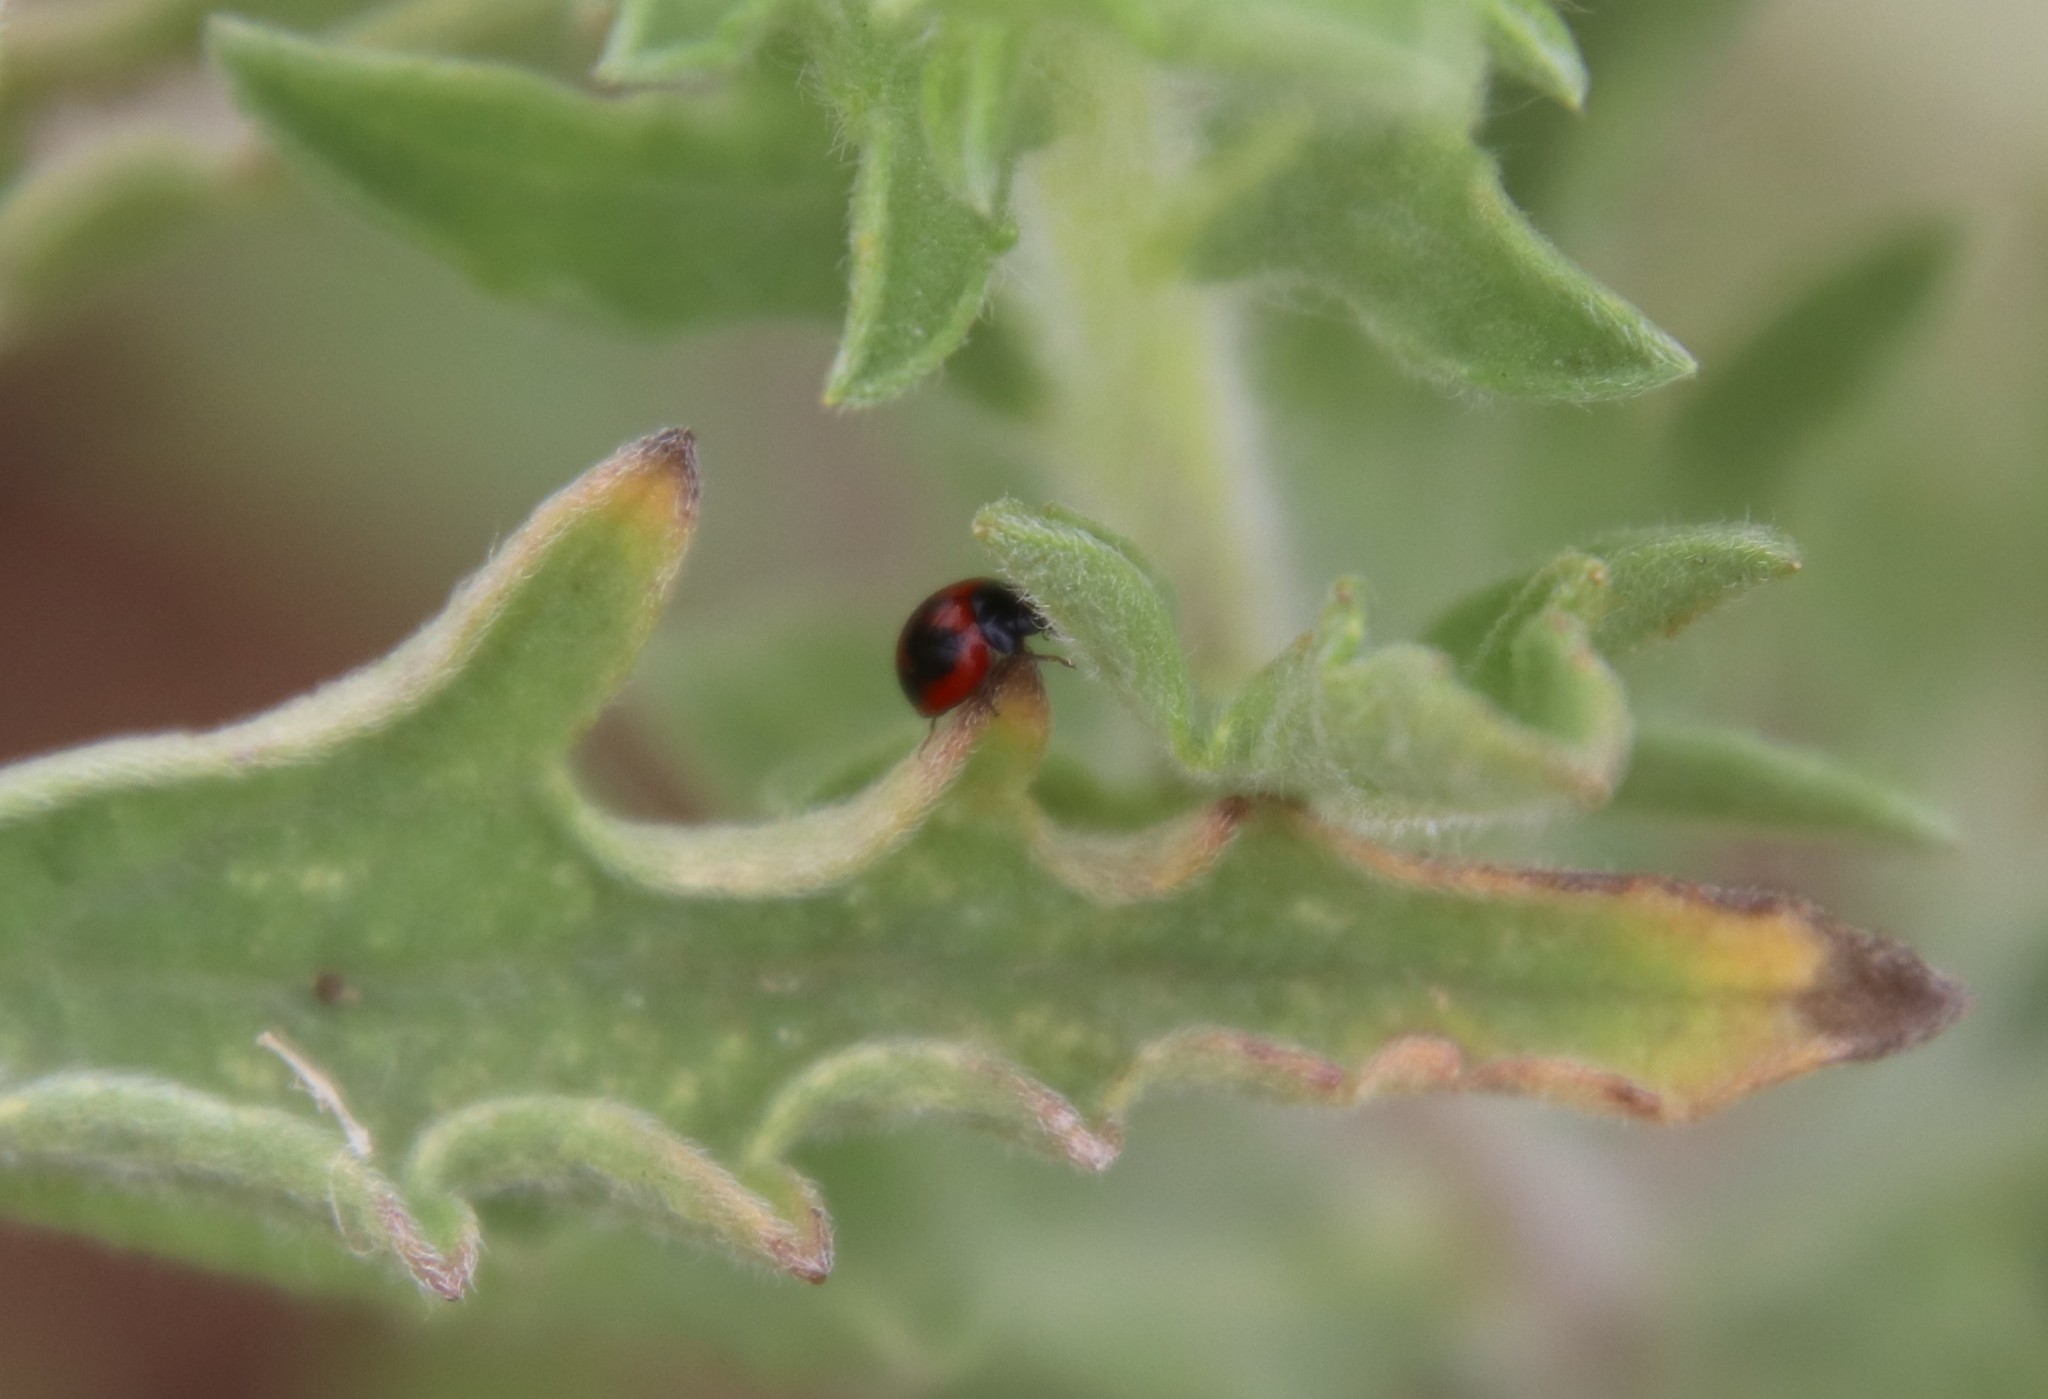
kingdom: Animalia
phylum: Arthropoda
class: Insecta
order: Coleoptera
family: Coccinellidae
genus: Exochomus
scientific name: Exochomus fasciatus
